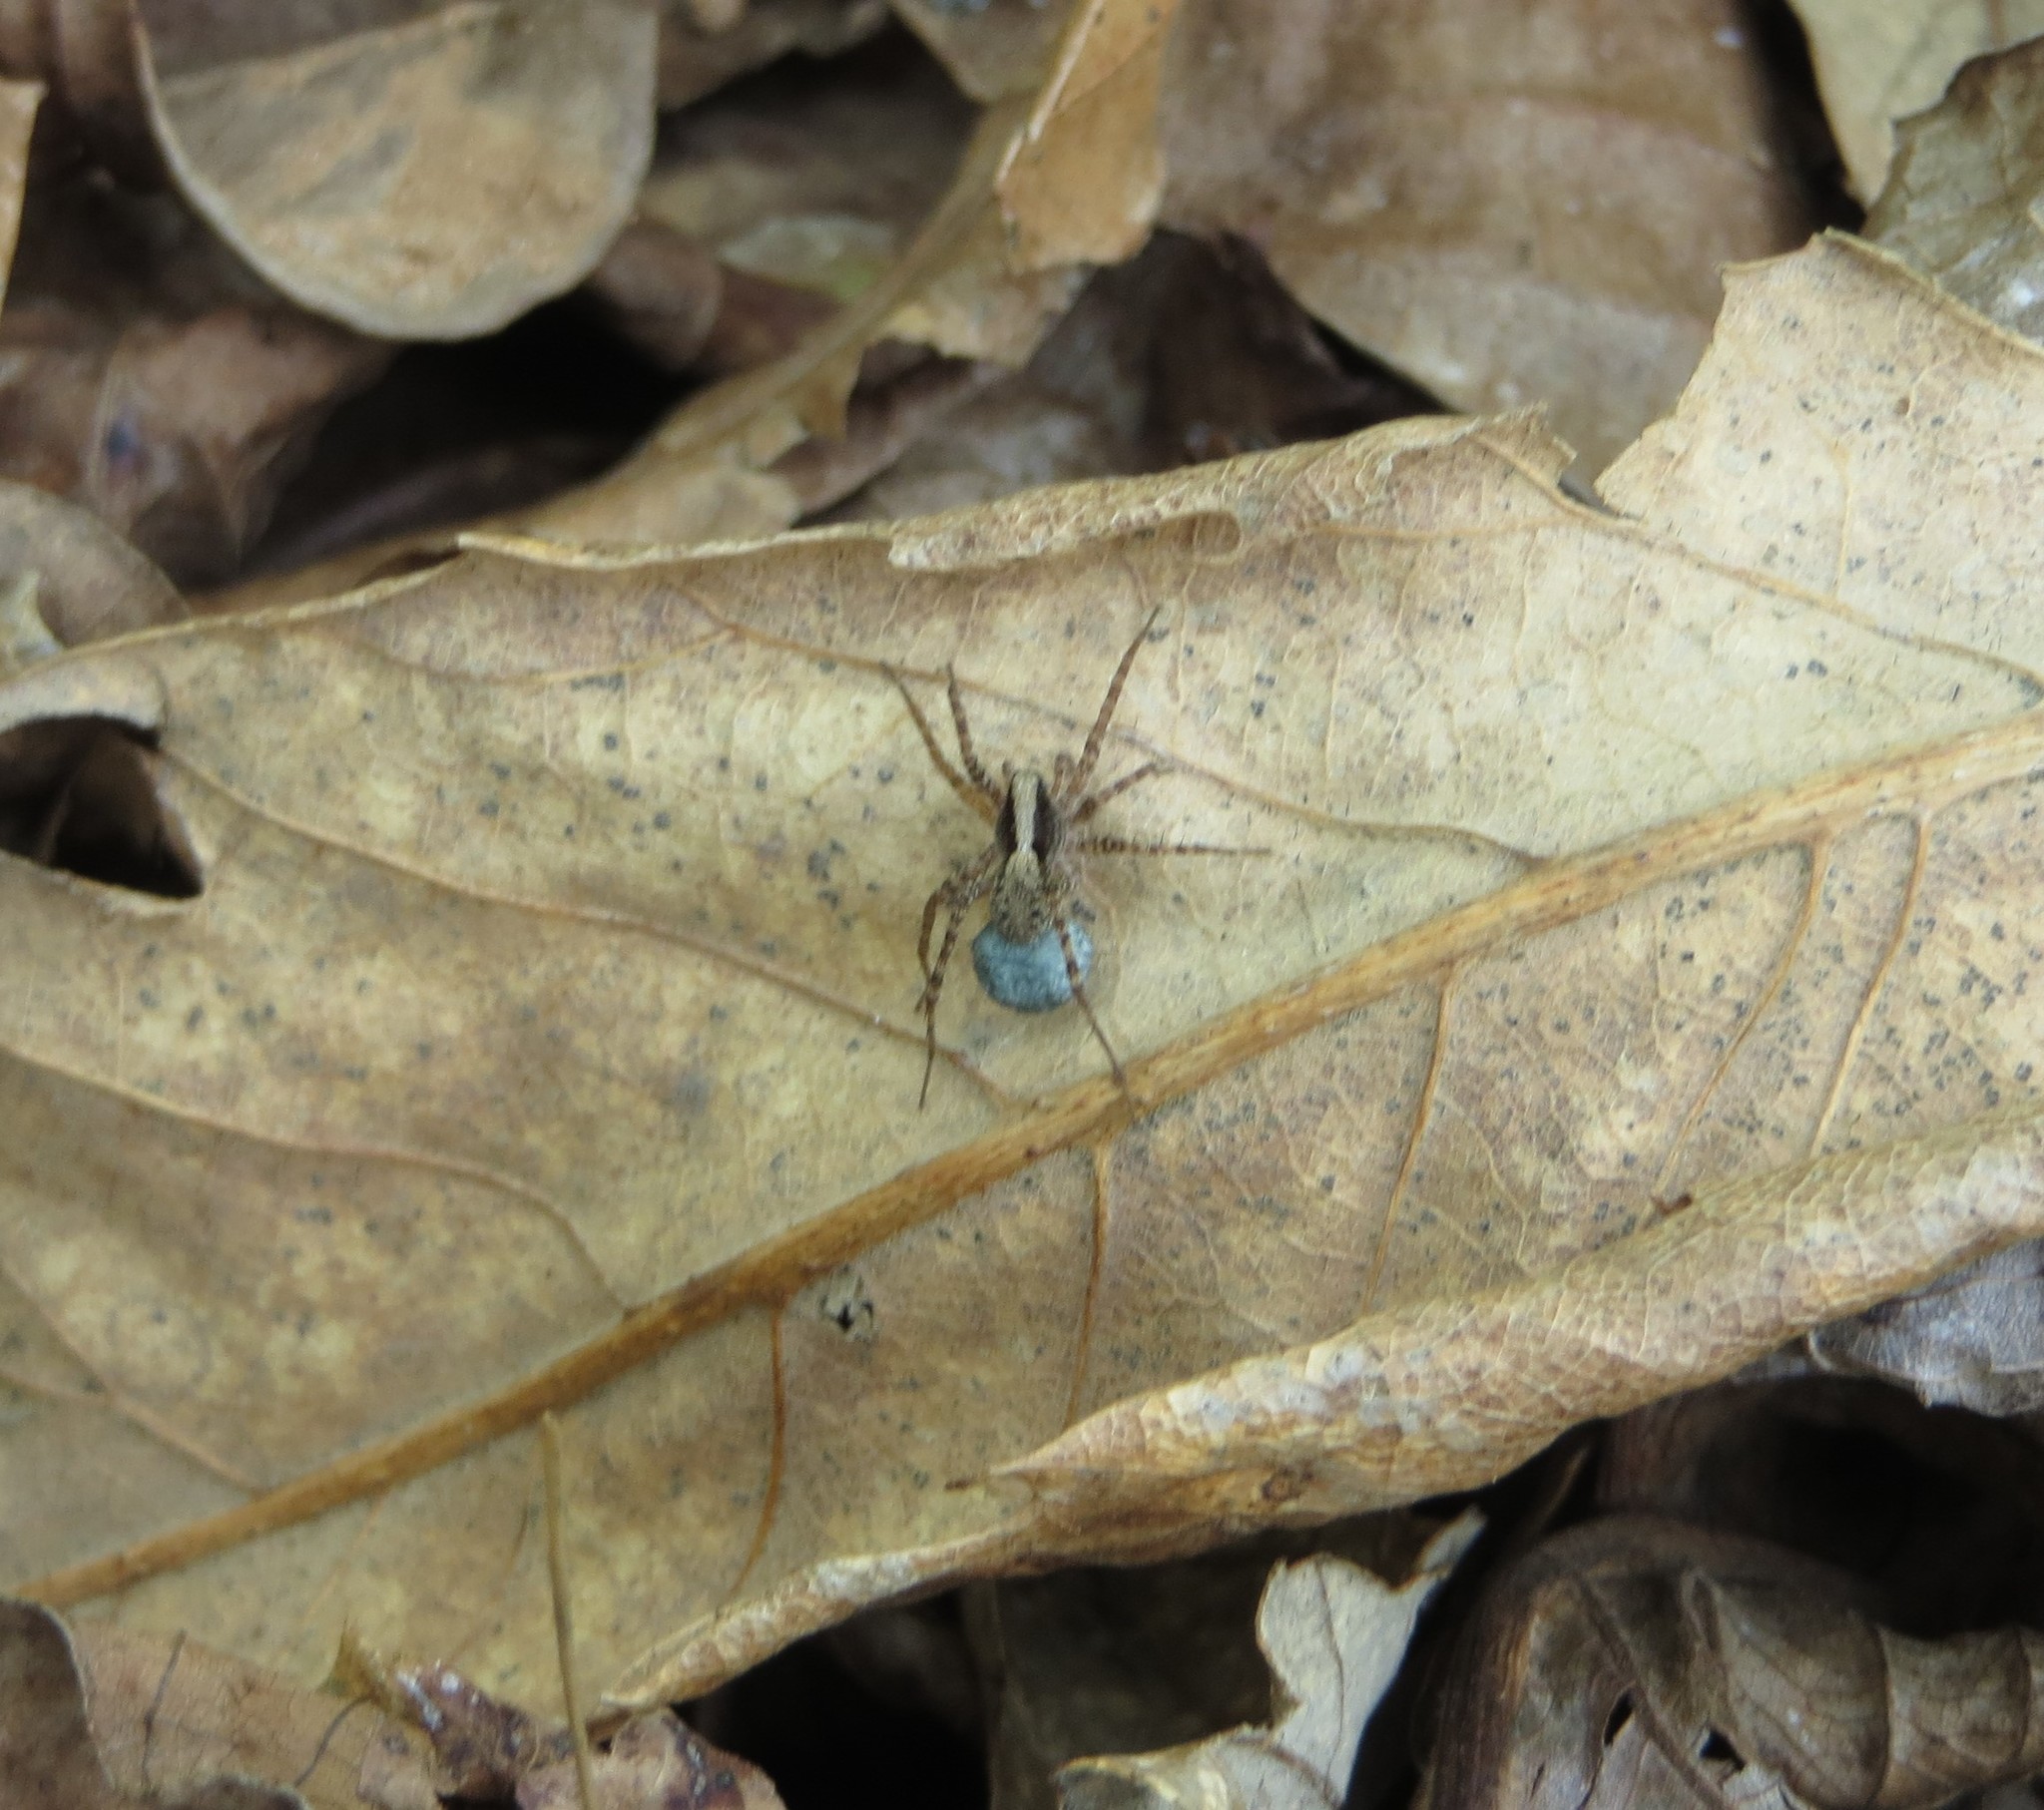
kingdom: Animalia
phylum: Arthropoda
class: Arachnida
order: Araneae
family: Lycosidae
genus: Pardosa
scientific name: Pardosa
